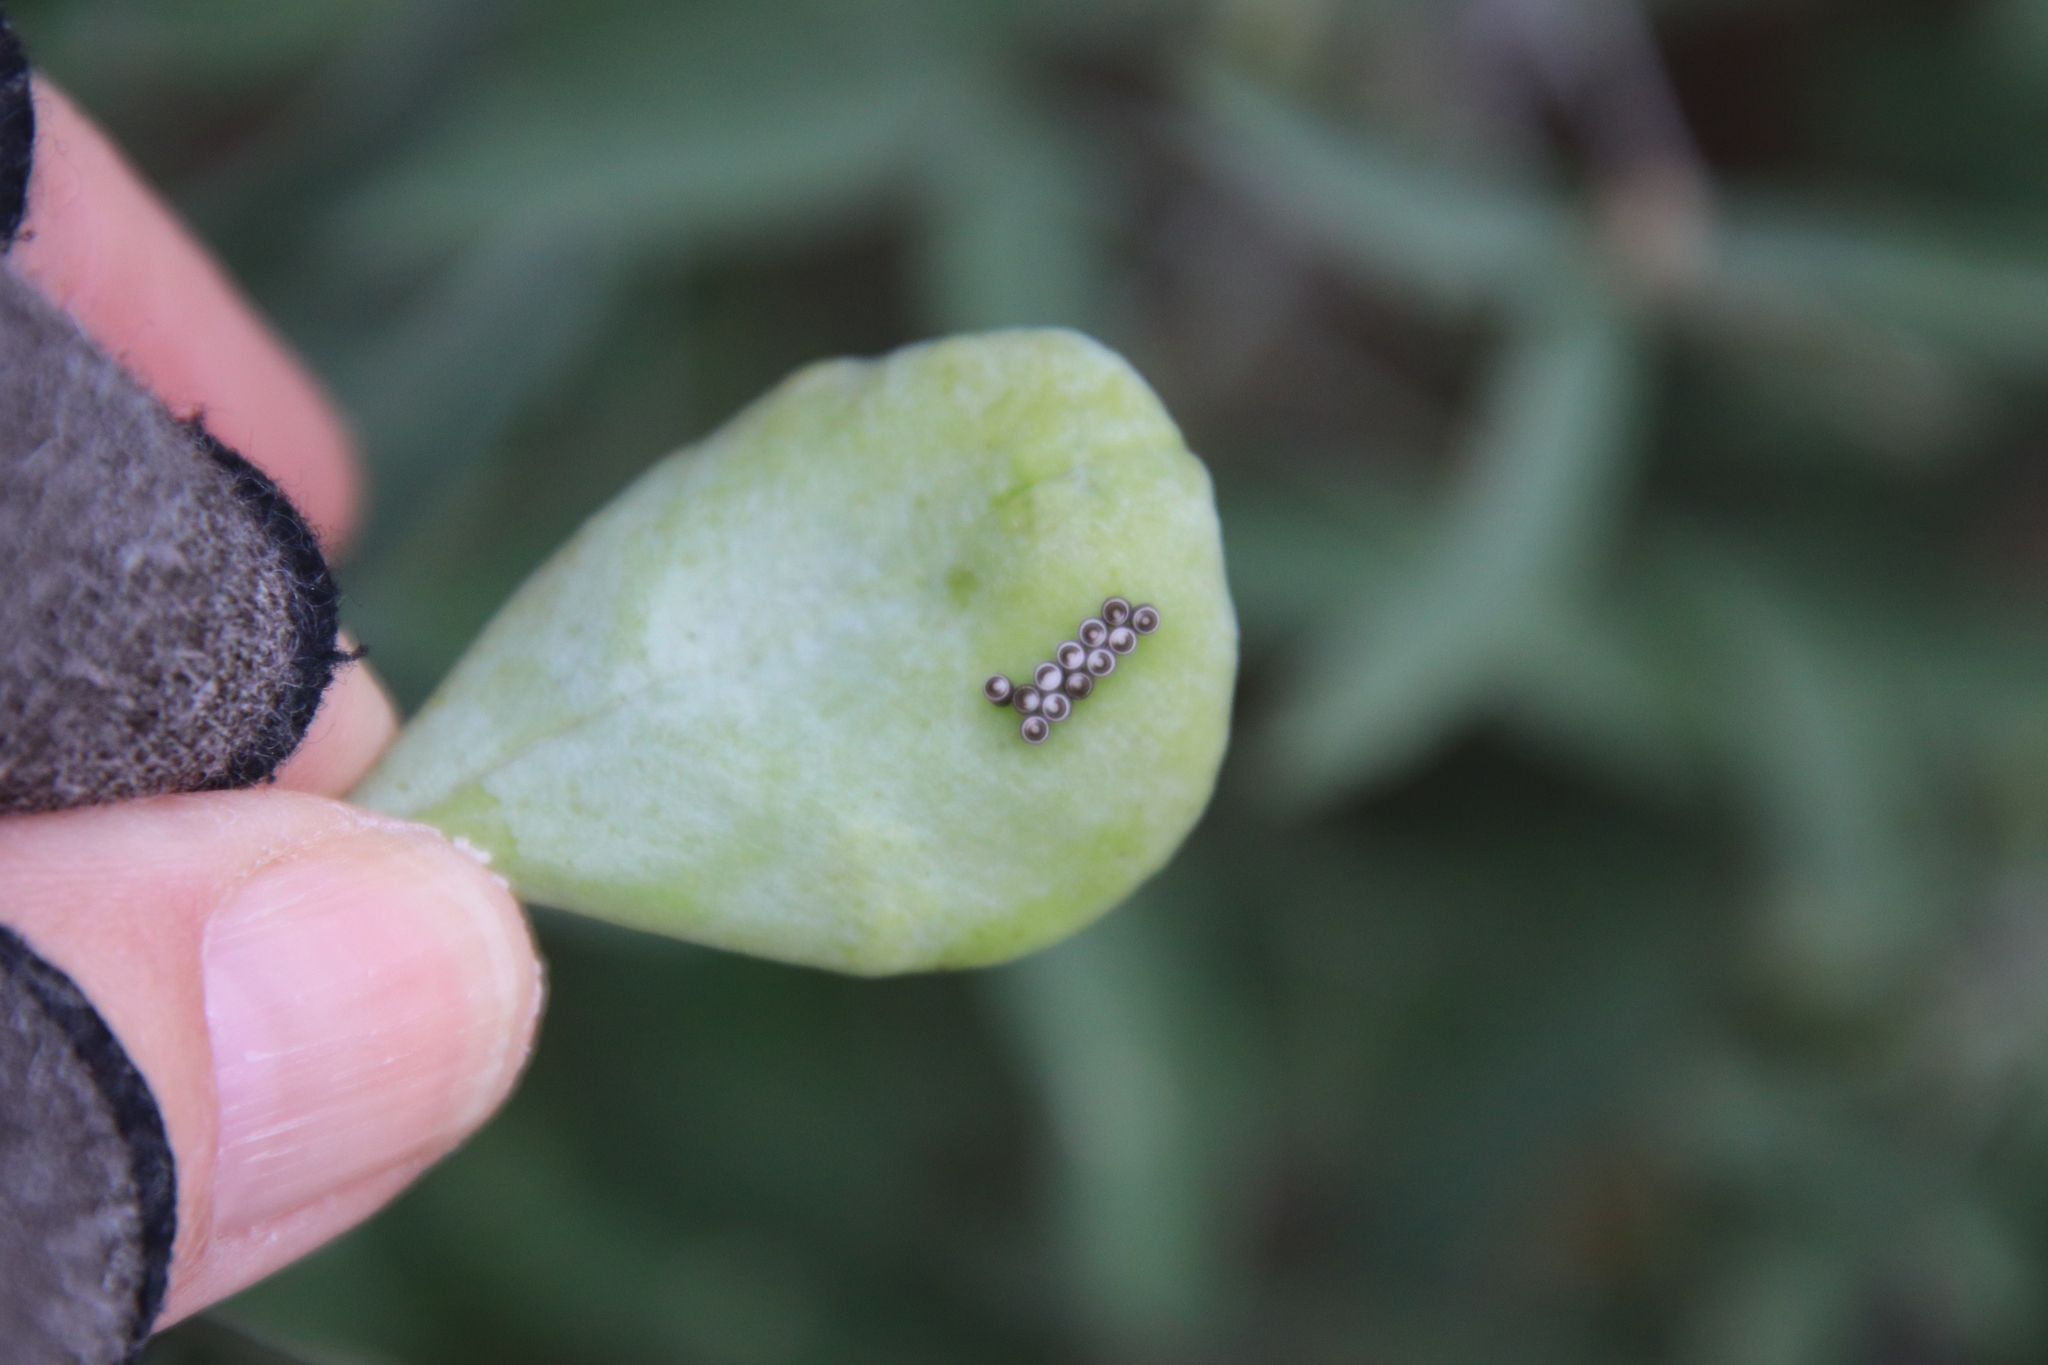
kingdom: Animalia
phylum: Arthropoda
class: Insecta
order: Hemiptera
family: Pentatomidae
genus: Murgantia
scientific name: Murgantia histrionica
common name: Harlequin bug
